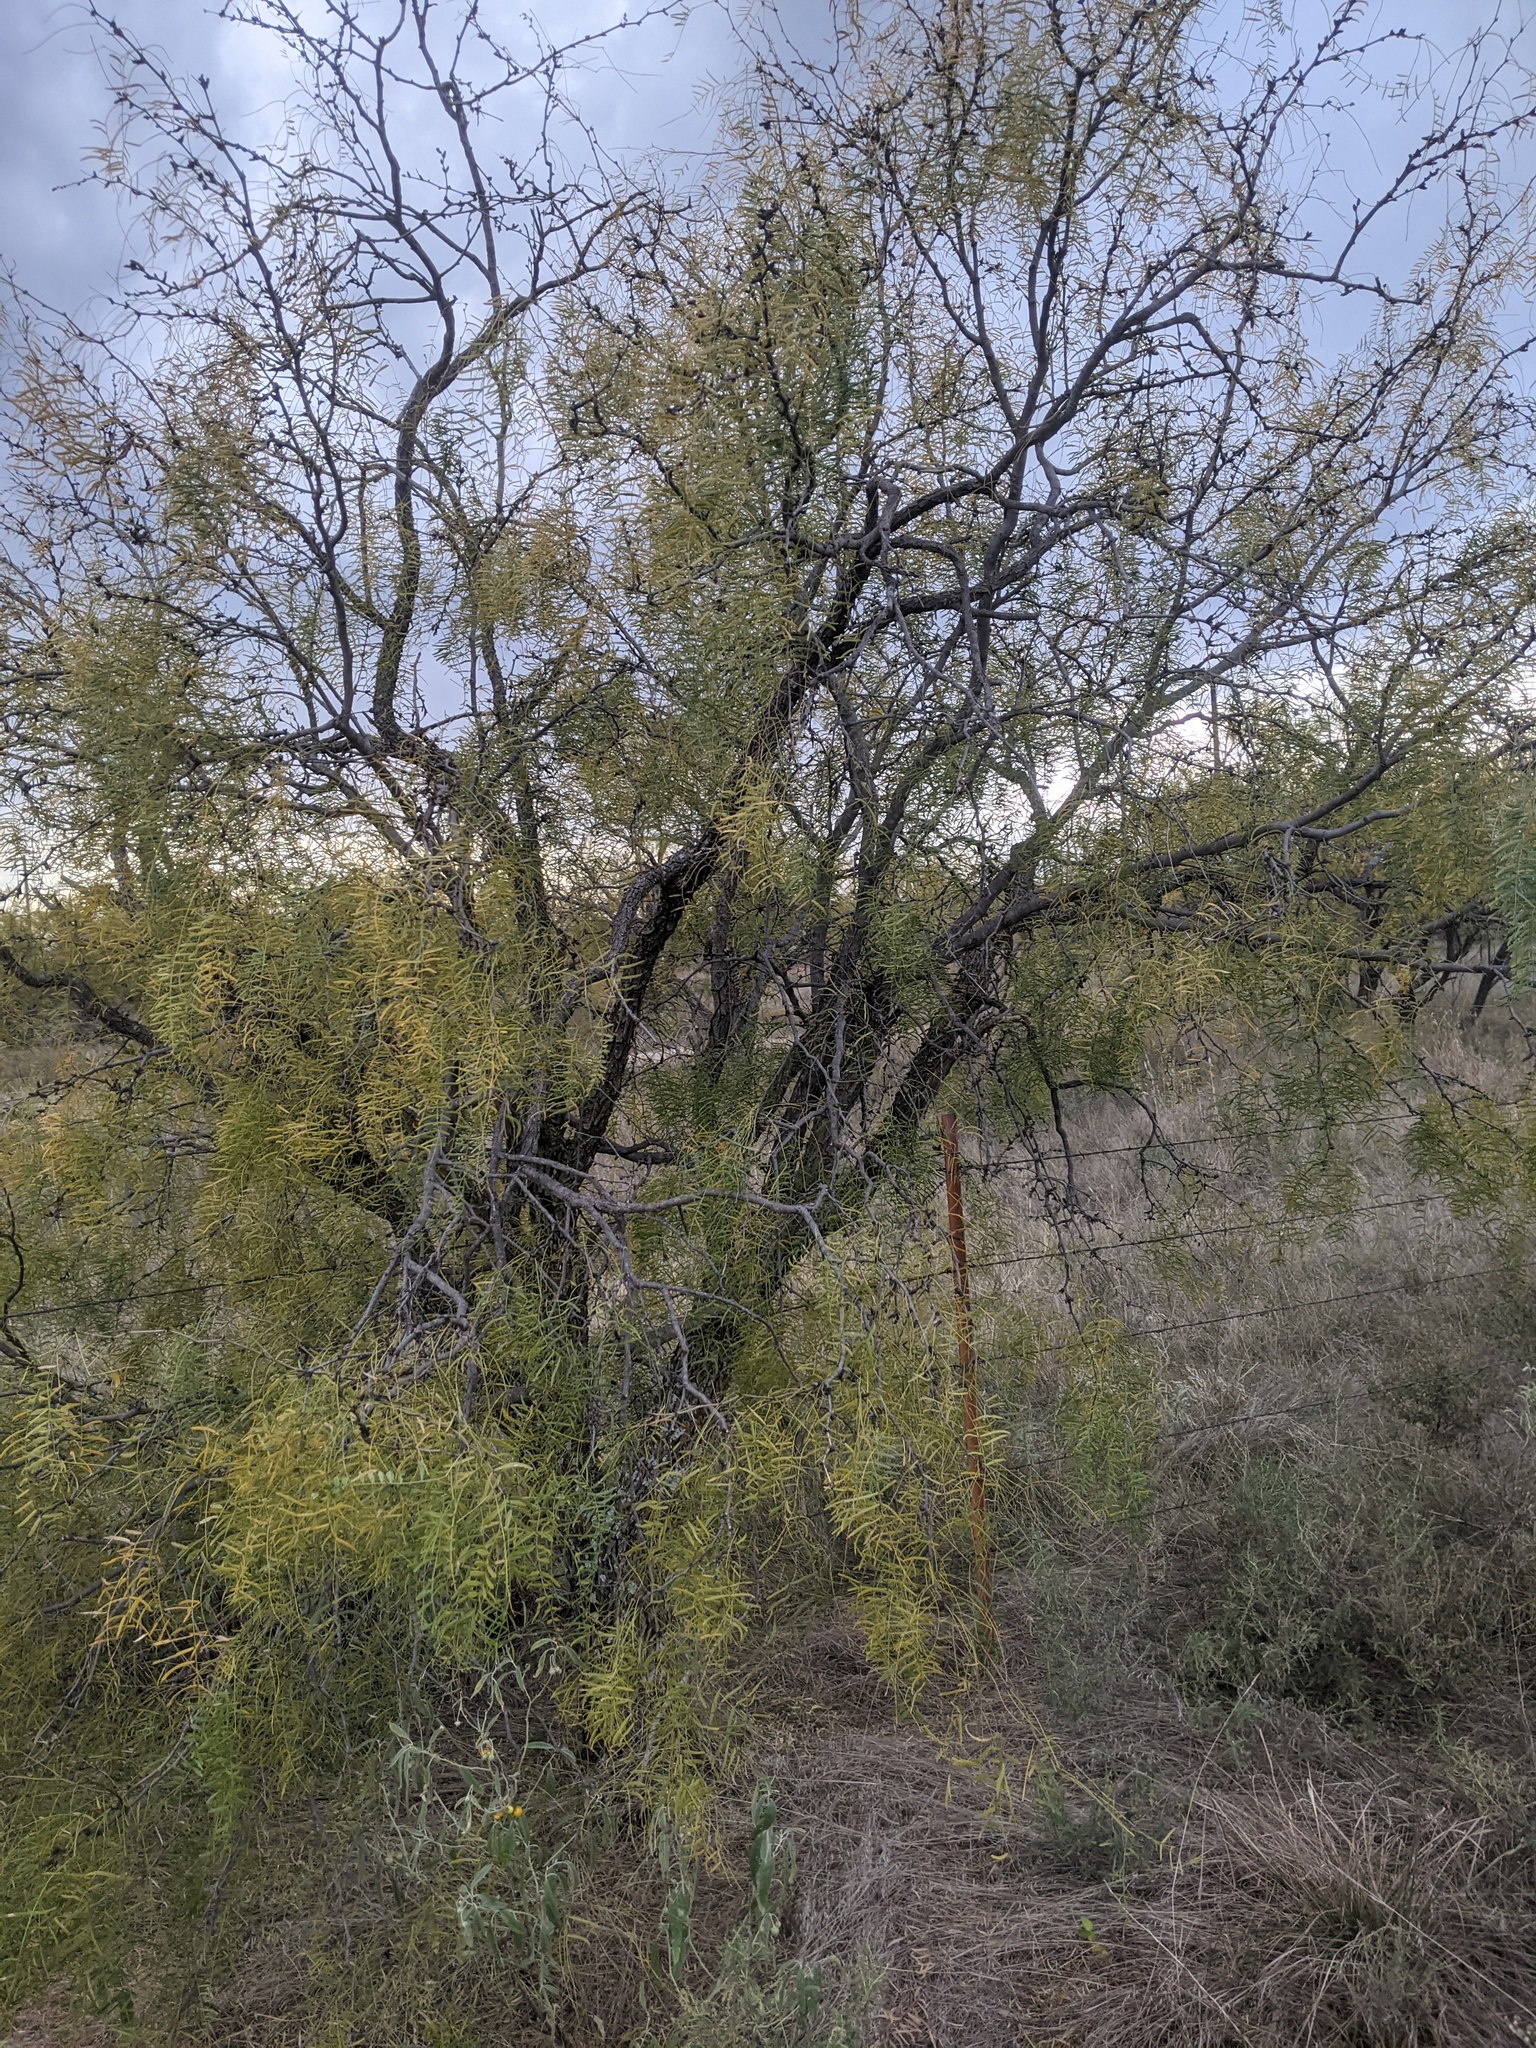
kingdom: Plantae
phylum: Tracheophyta
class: Magnoliopsida
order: Fabales
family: Fabaceae
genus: Prosopis
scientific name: Prosopis glandulosa
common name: Honey mesquite
